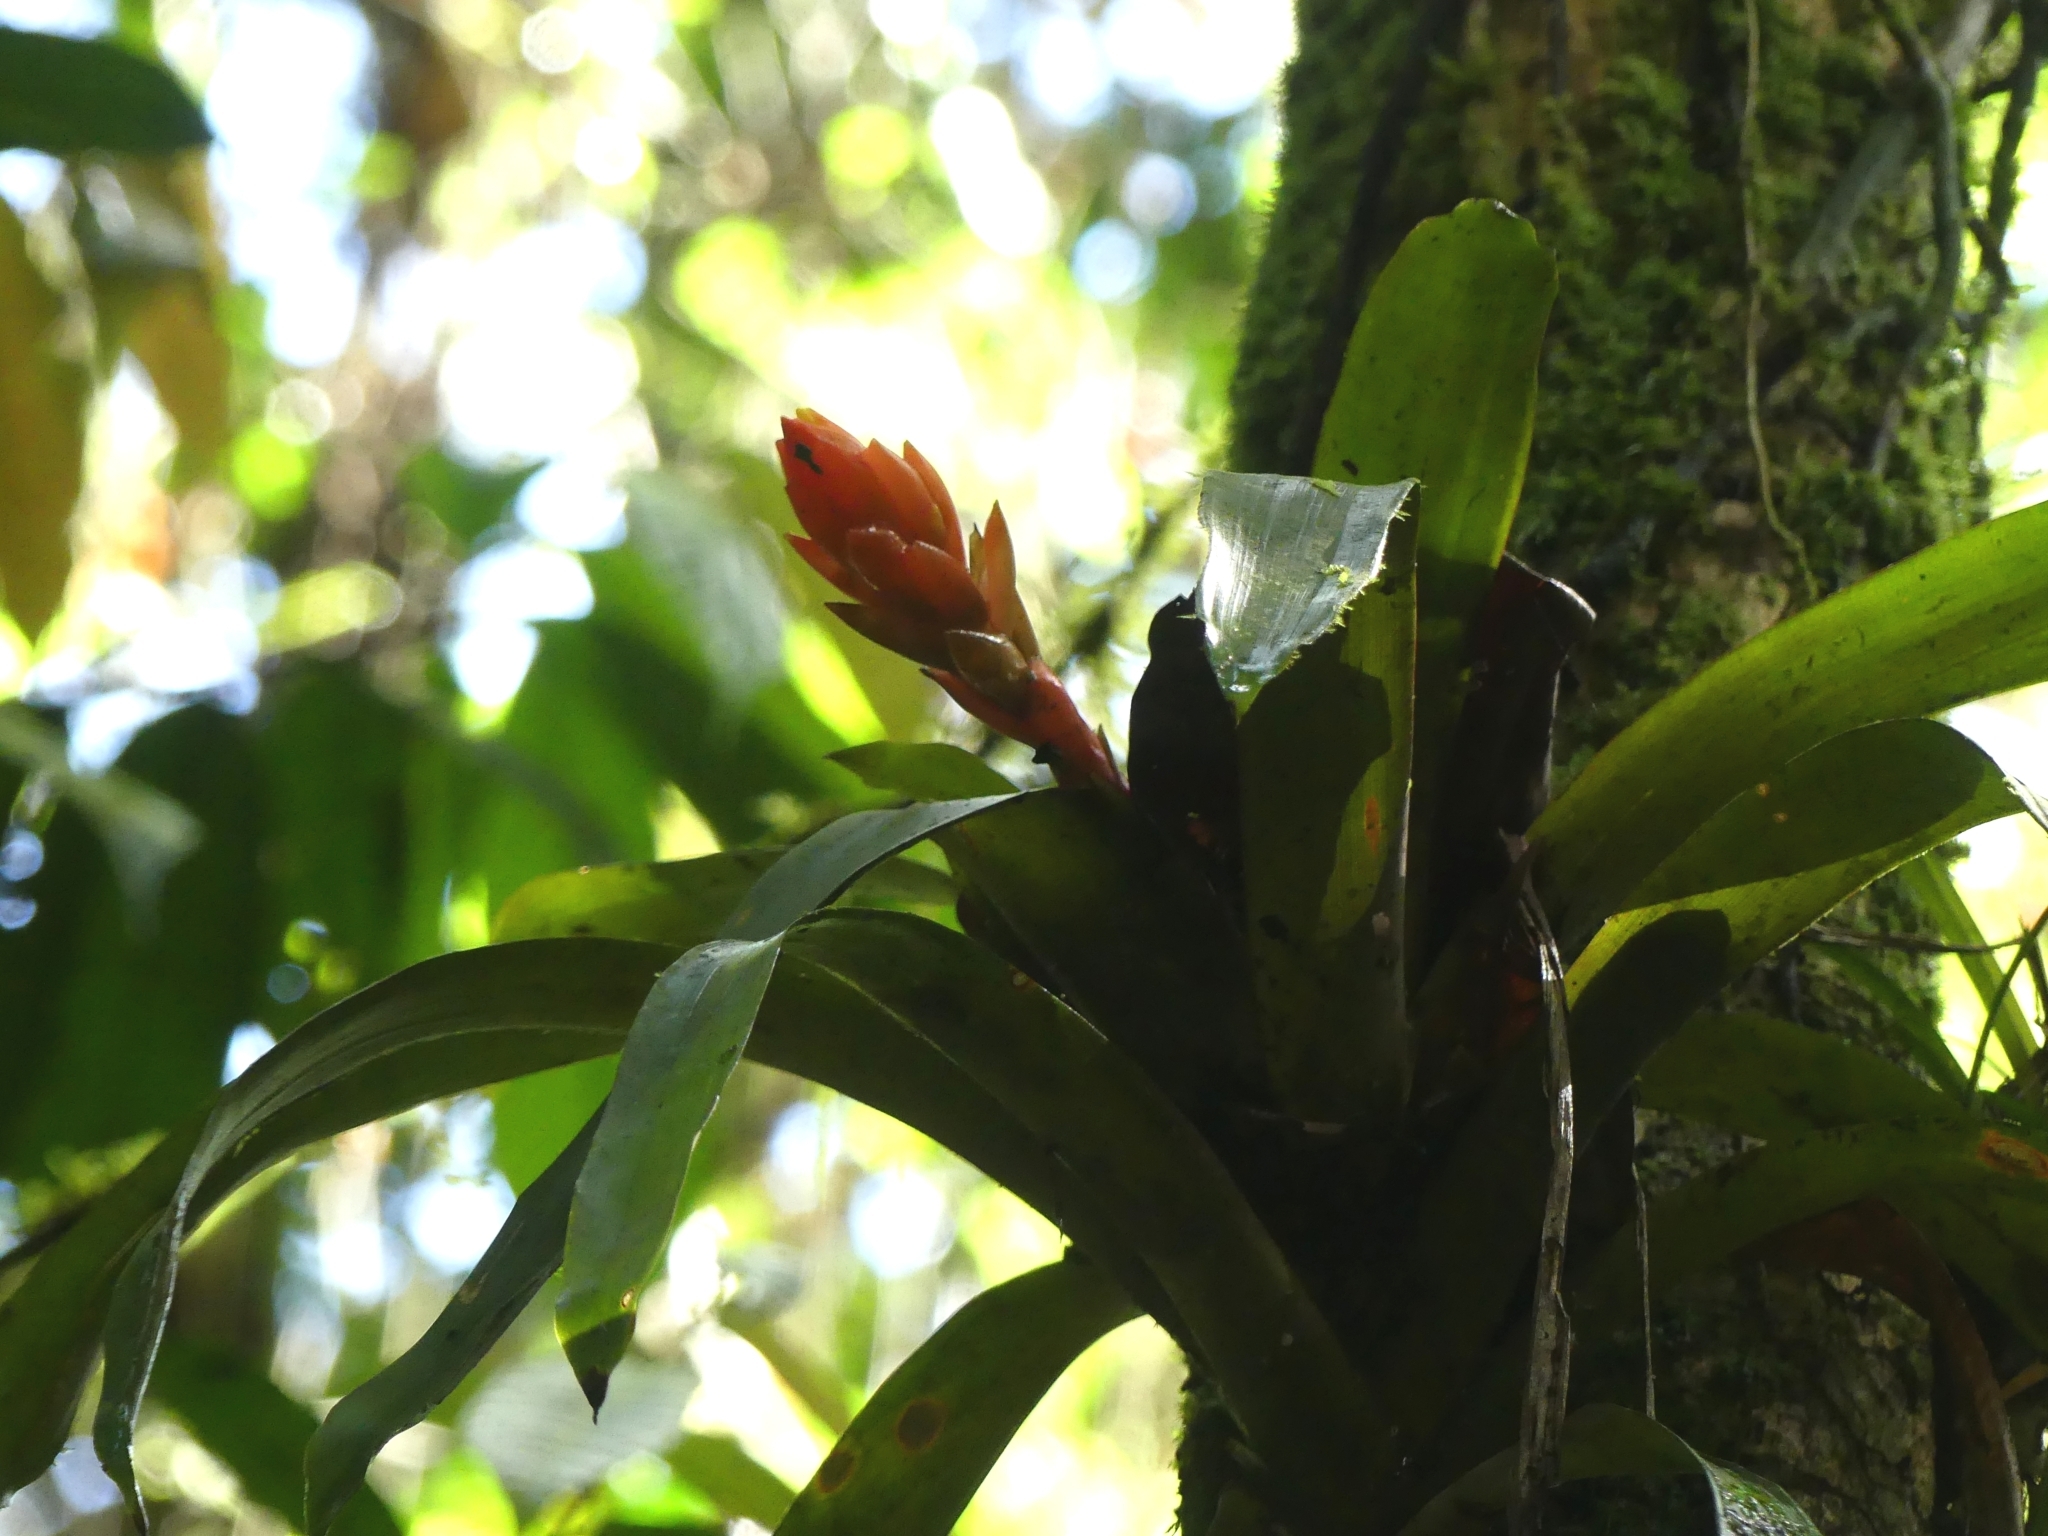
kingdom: Plantae
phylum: Tracheophyta
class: Liliopsida
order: Poales
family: Bromeliaceae
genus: Guzmania
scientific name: Guzmania melinonis
